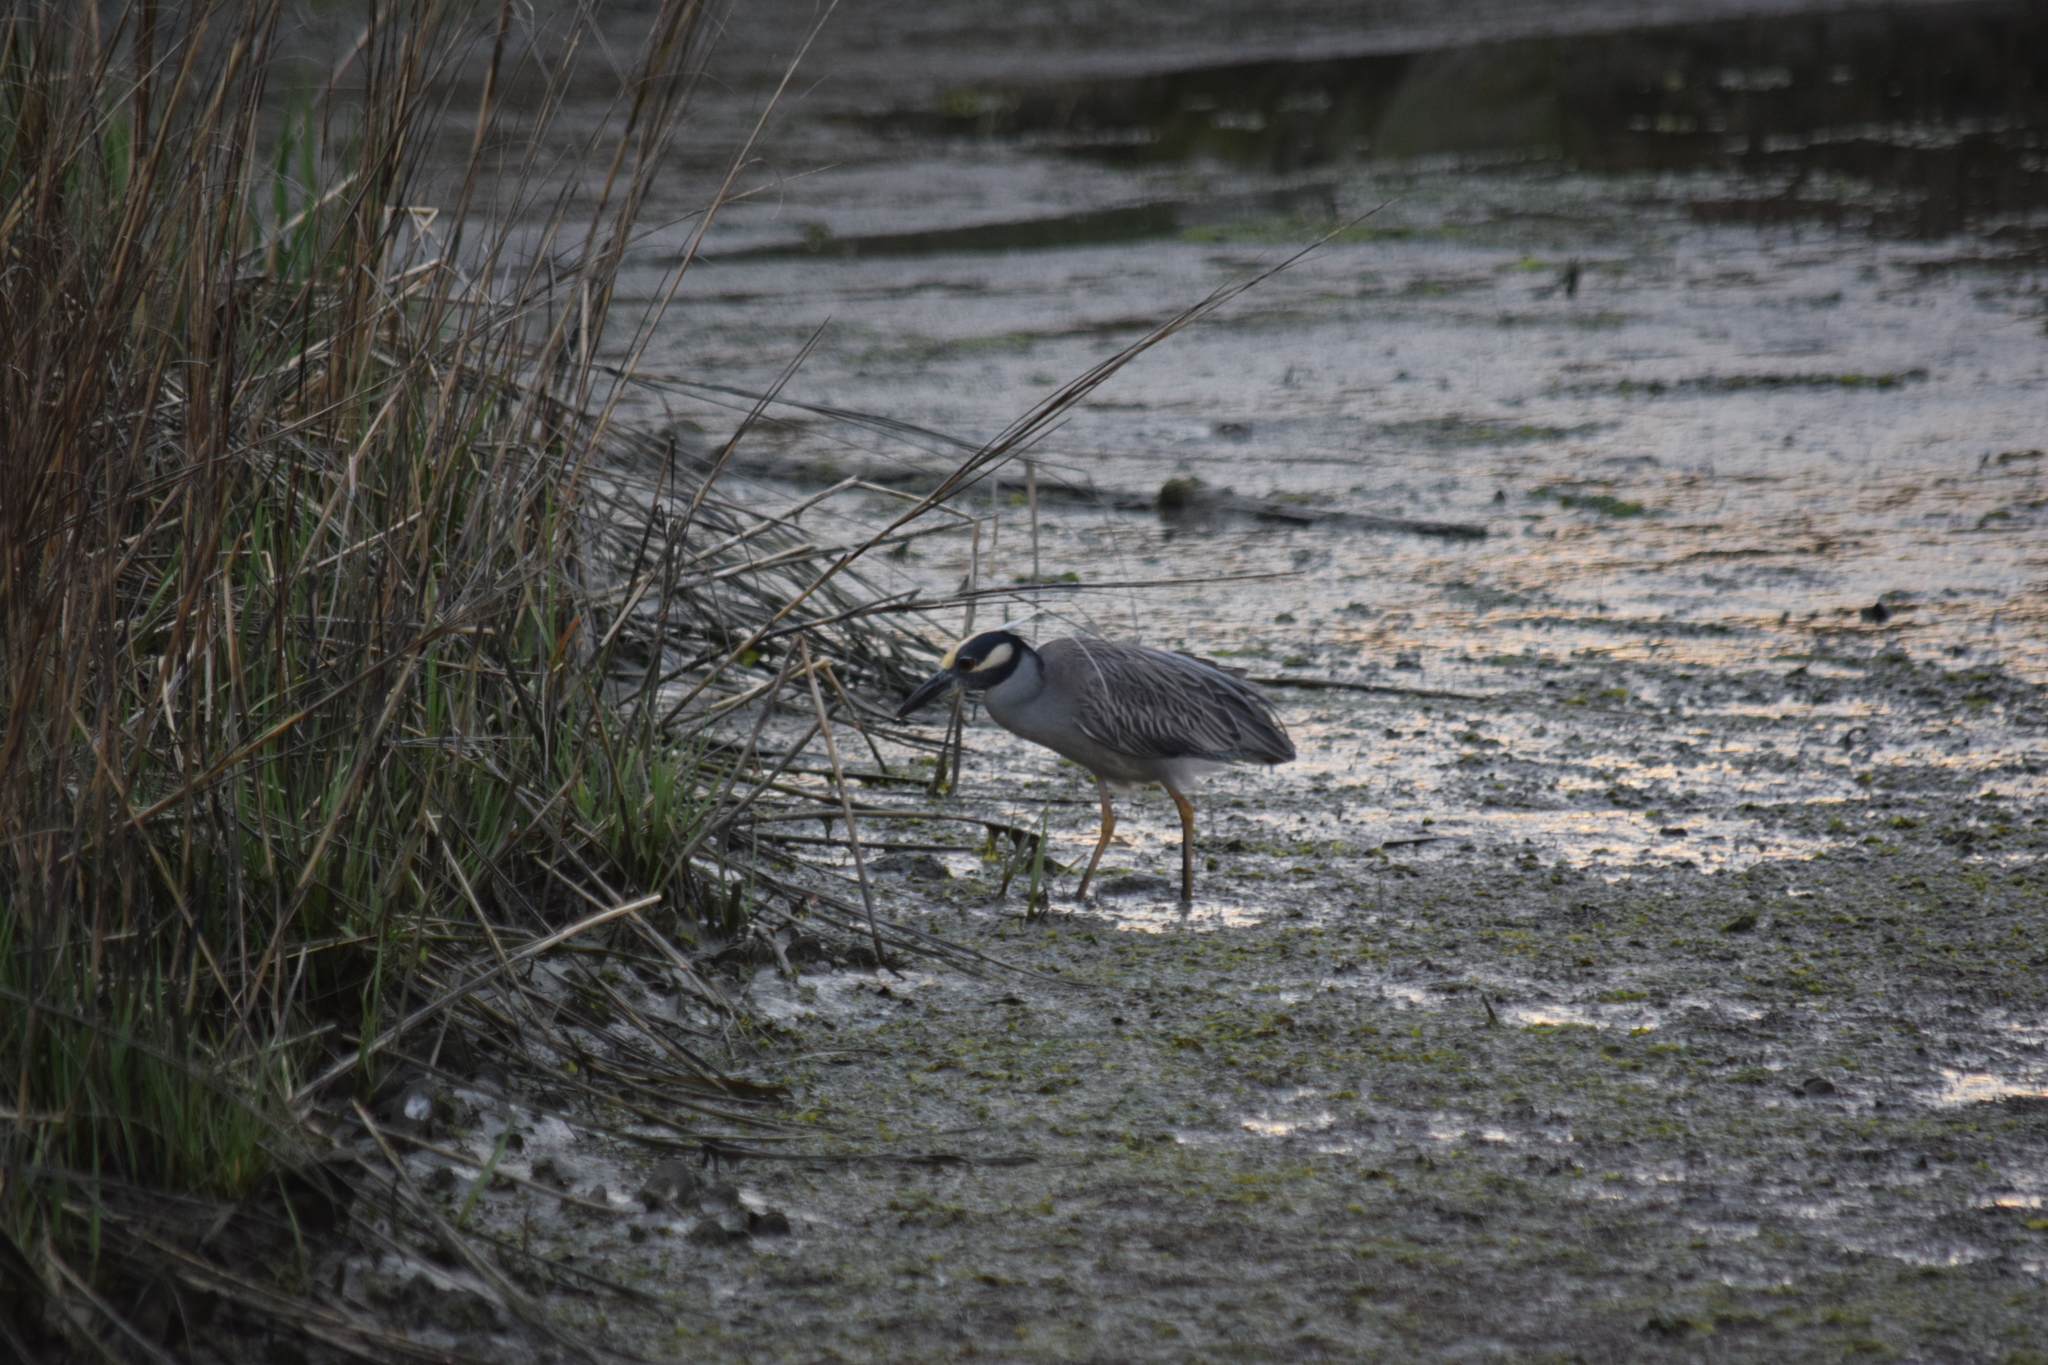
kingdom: Animalia
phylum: Chordata
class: Aves
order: Pelecaniformes
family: Ardeidae
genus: Nyctanassa
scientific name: Nyctanassa violacea
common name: Yellow-crowned night heron
